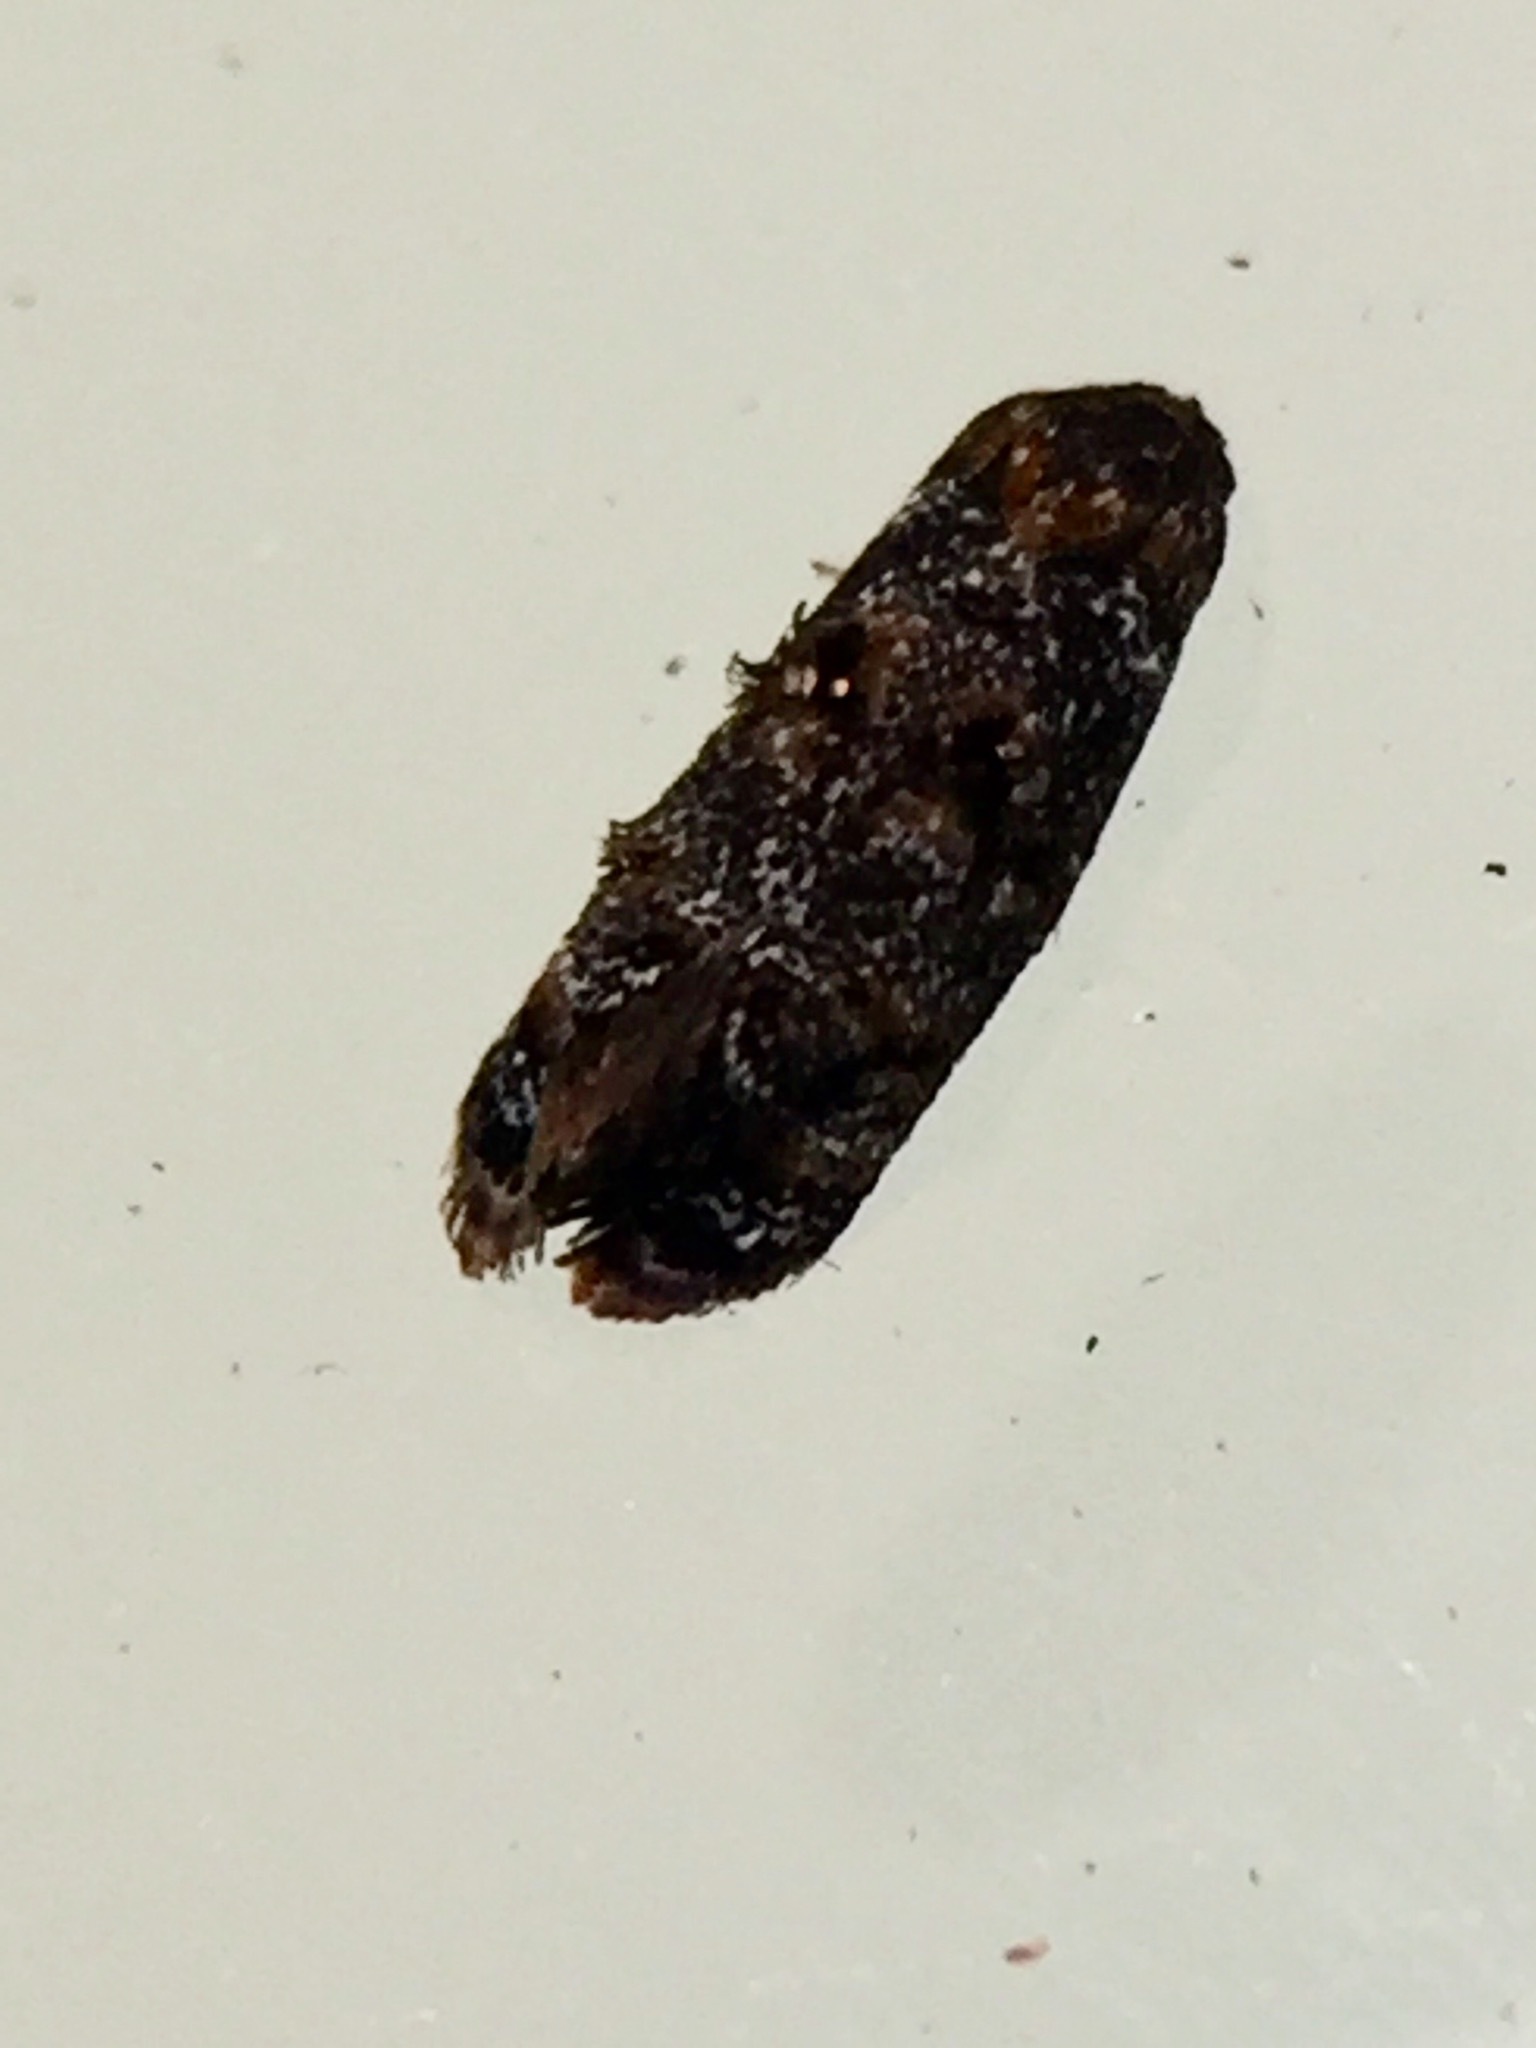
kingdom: Animalia
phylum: Arthropoda
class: Insecta
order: Lepidoptera
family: Oecophoridae
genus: Corocosma
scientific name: Corocosma memorabilis
